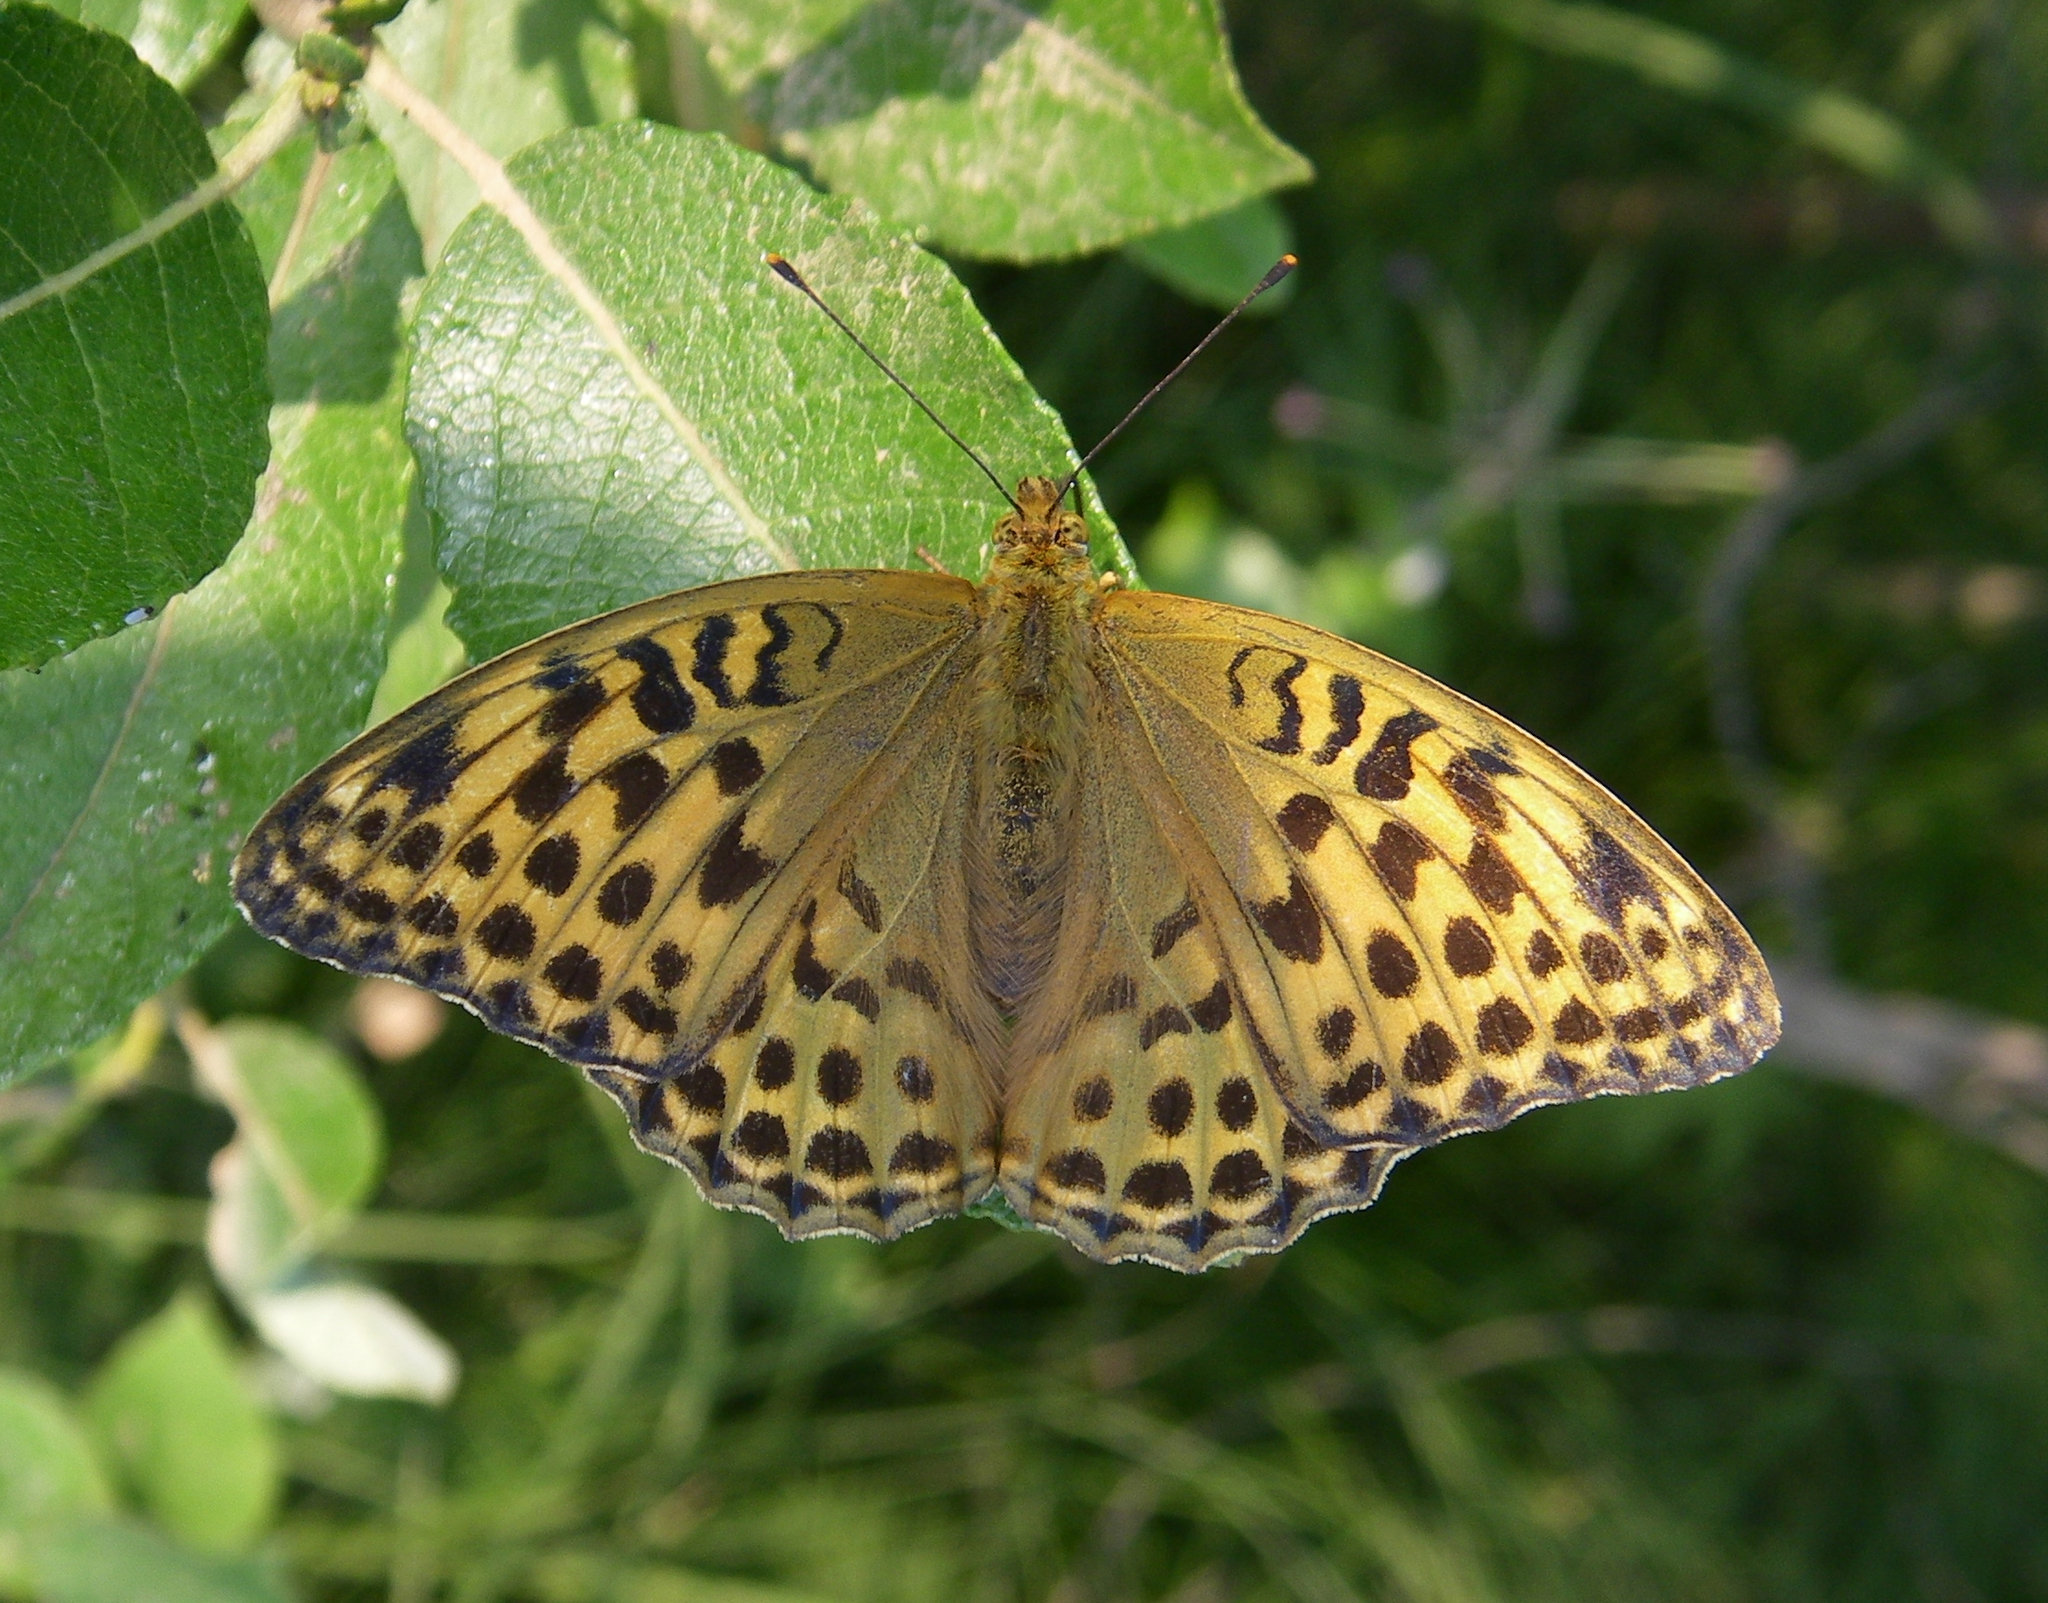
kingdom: Animalia
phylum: Arthropoda
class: Insecta
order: Lepidoptera
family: Nymphalidae
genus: Argynnis
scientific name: Argynnis paphia
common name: Silver-washed fritillary
